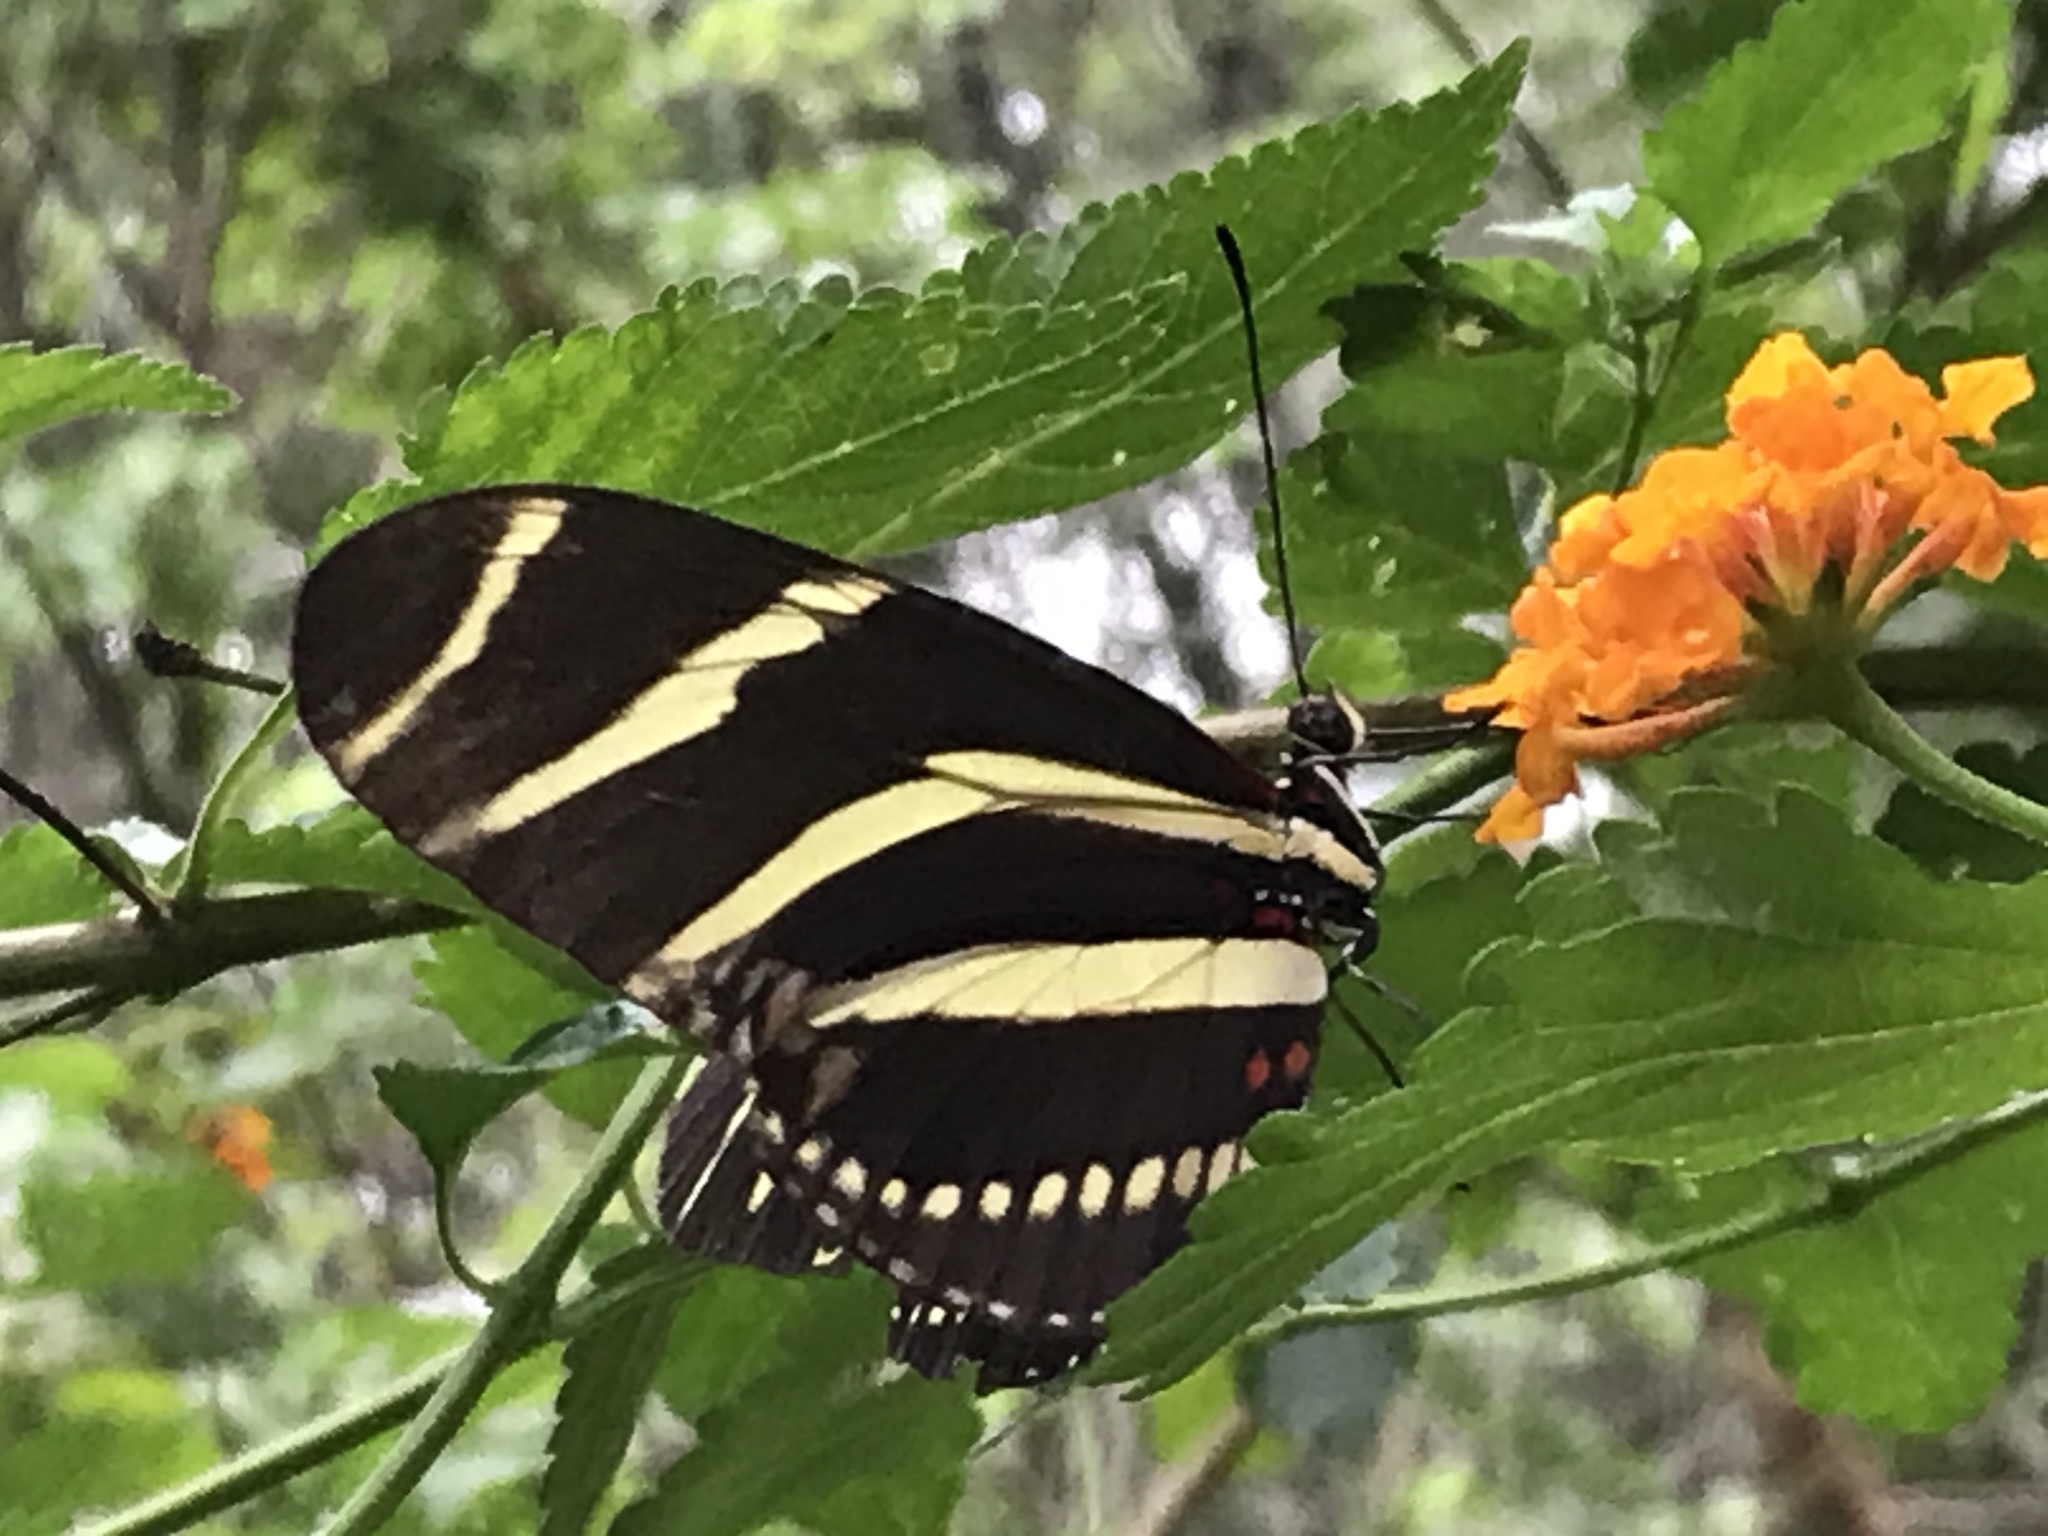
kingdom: Animalia
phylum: Arthropoda
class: Insecta
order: Lepidoptera
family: Nymphalidae
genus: Heliconius
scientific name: Heliconius charithonia
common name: Zebra long wing
